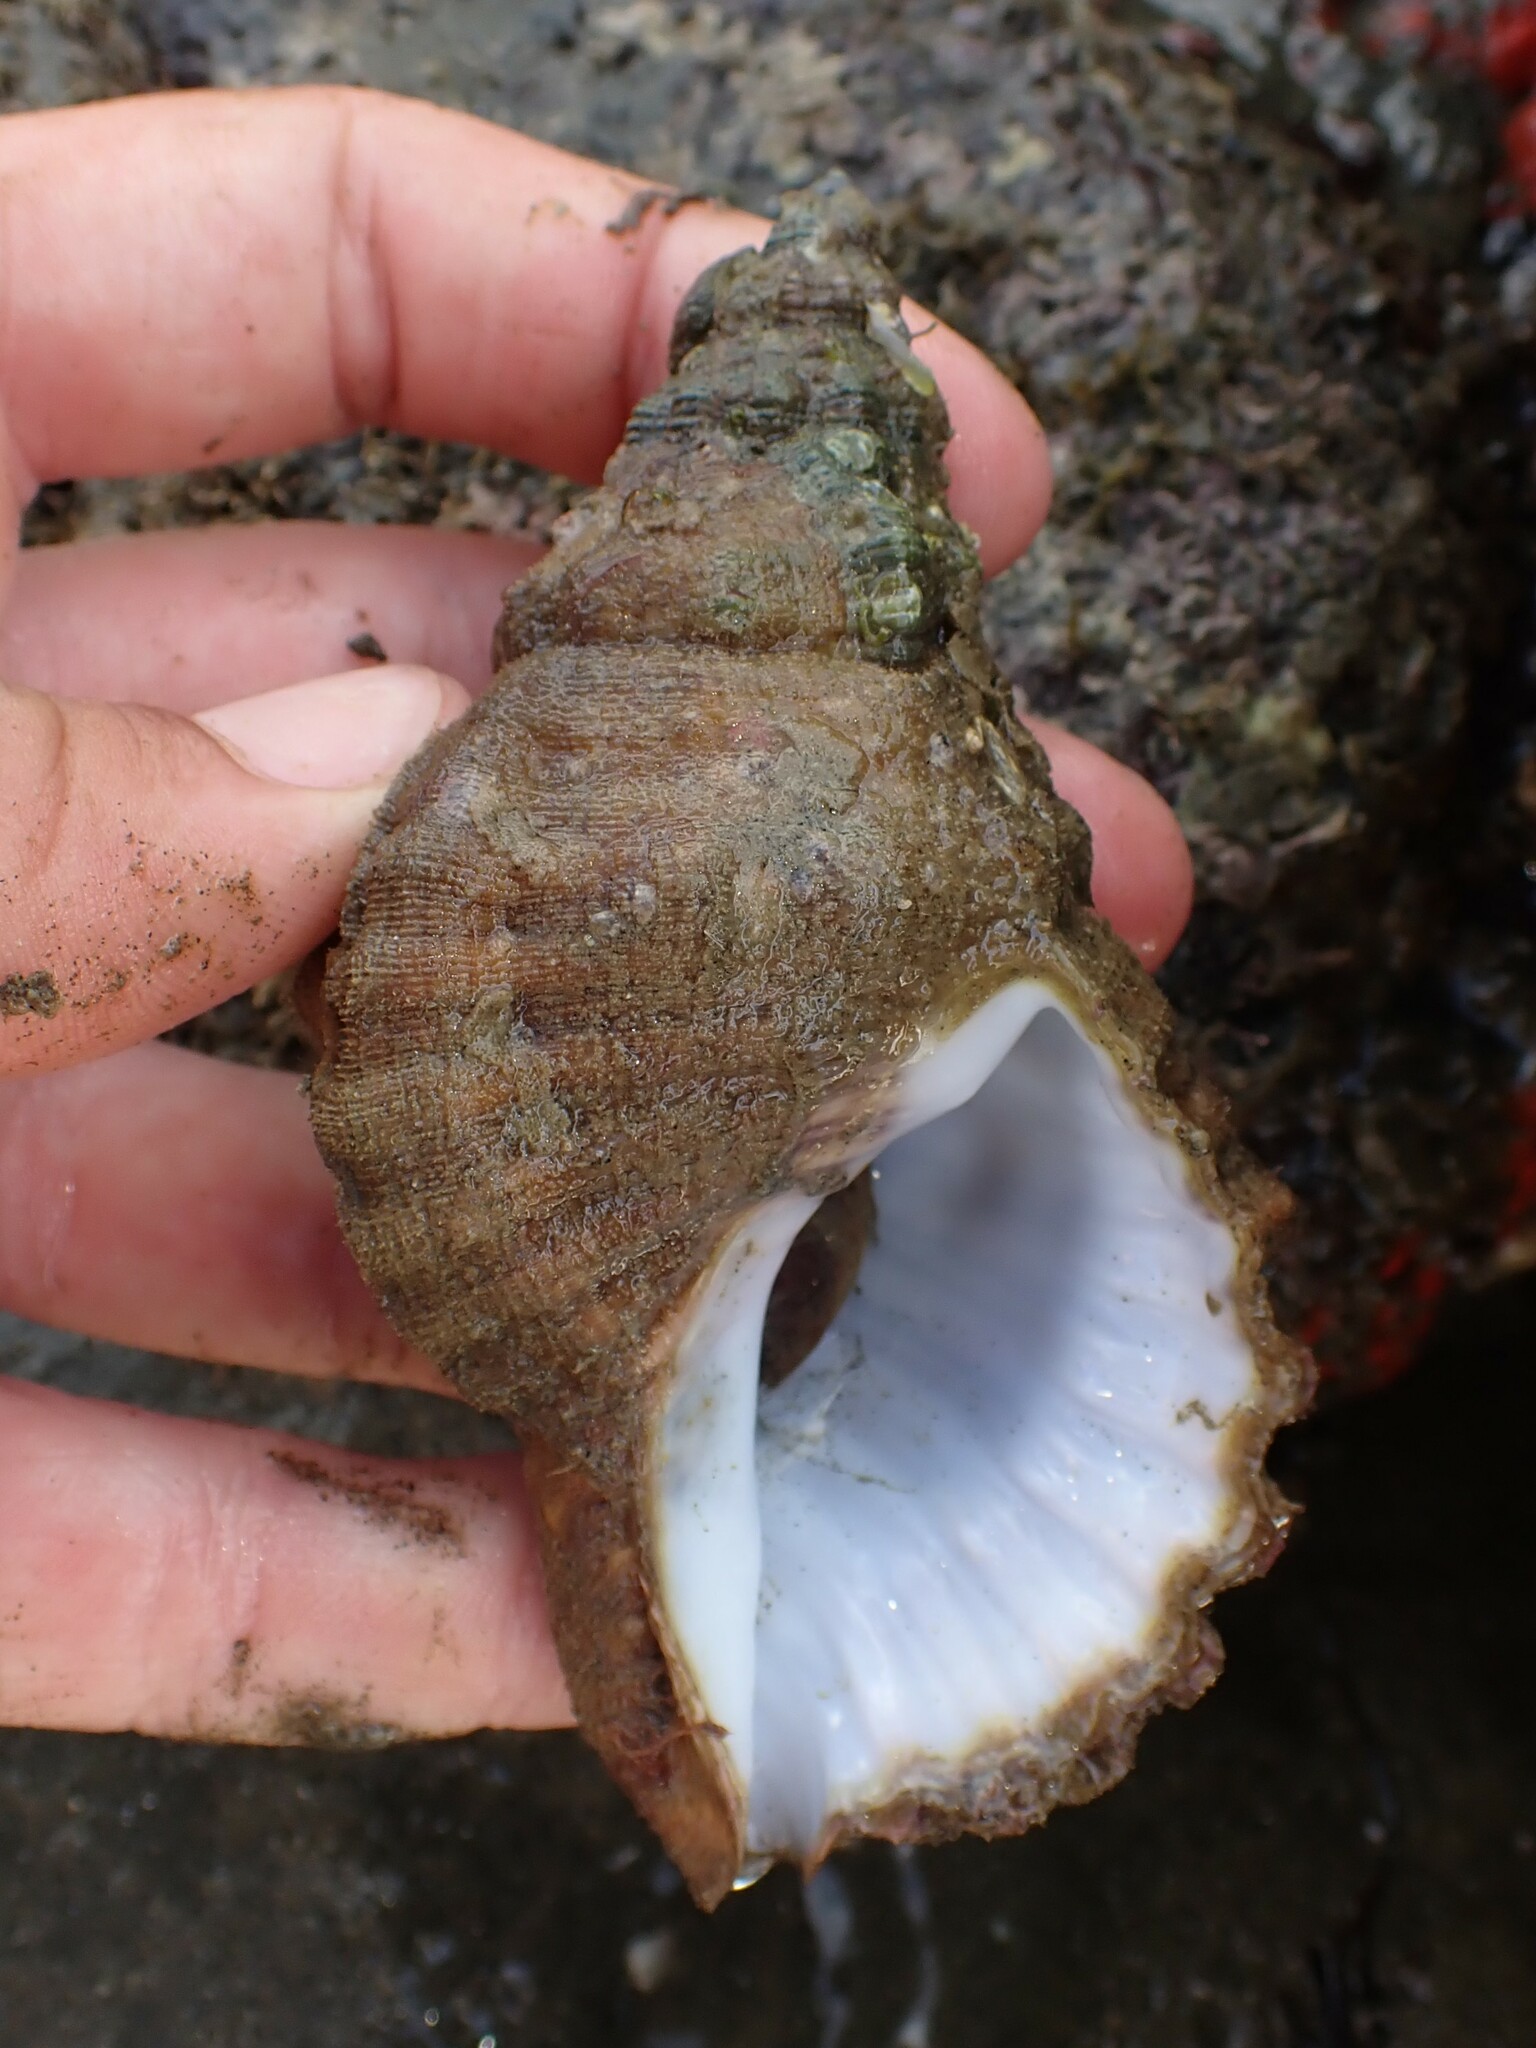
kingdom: Animalia
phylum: Mollusca
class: Gastropoda
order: Littorinimorpha
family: Cymatiidae
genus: Cabestana
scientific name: Cabestana spengleri
